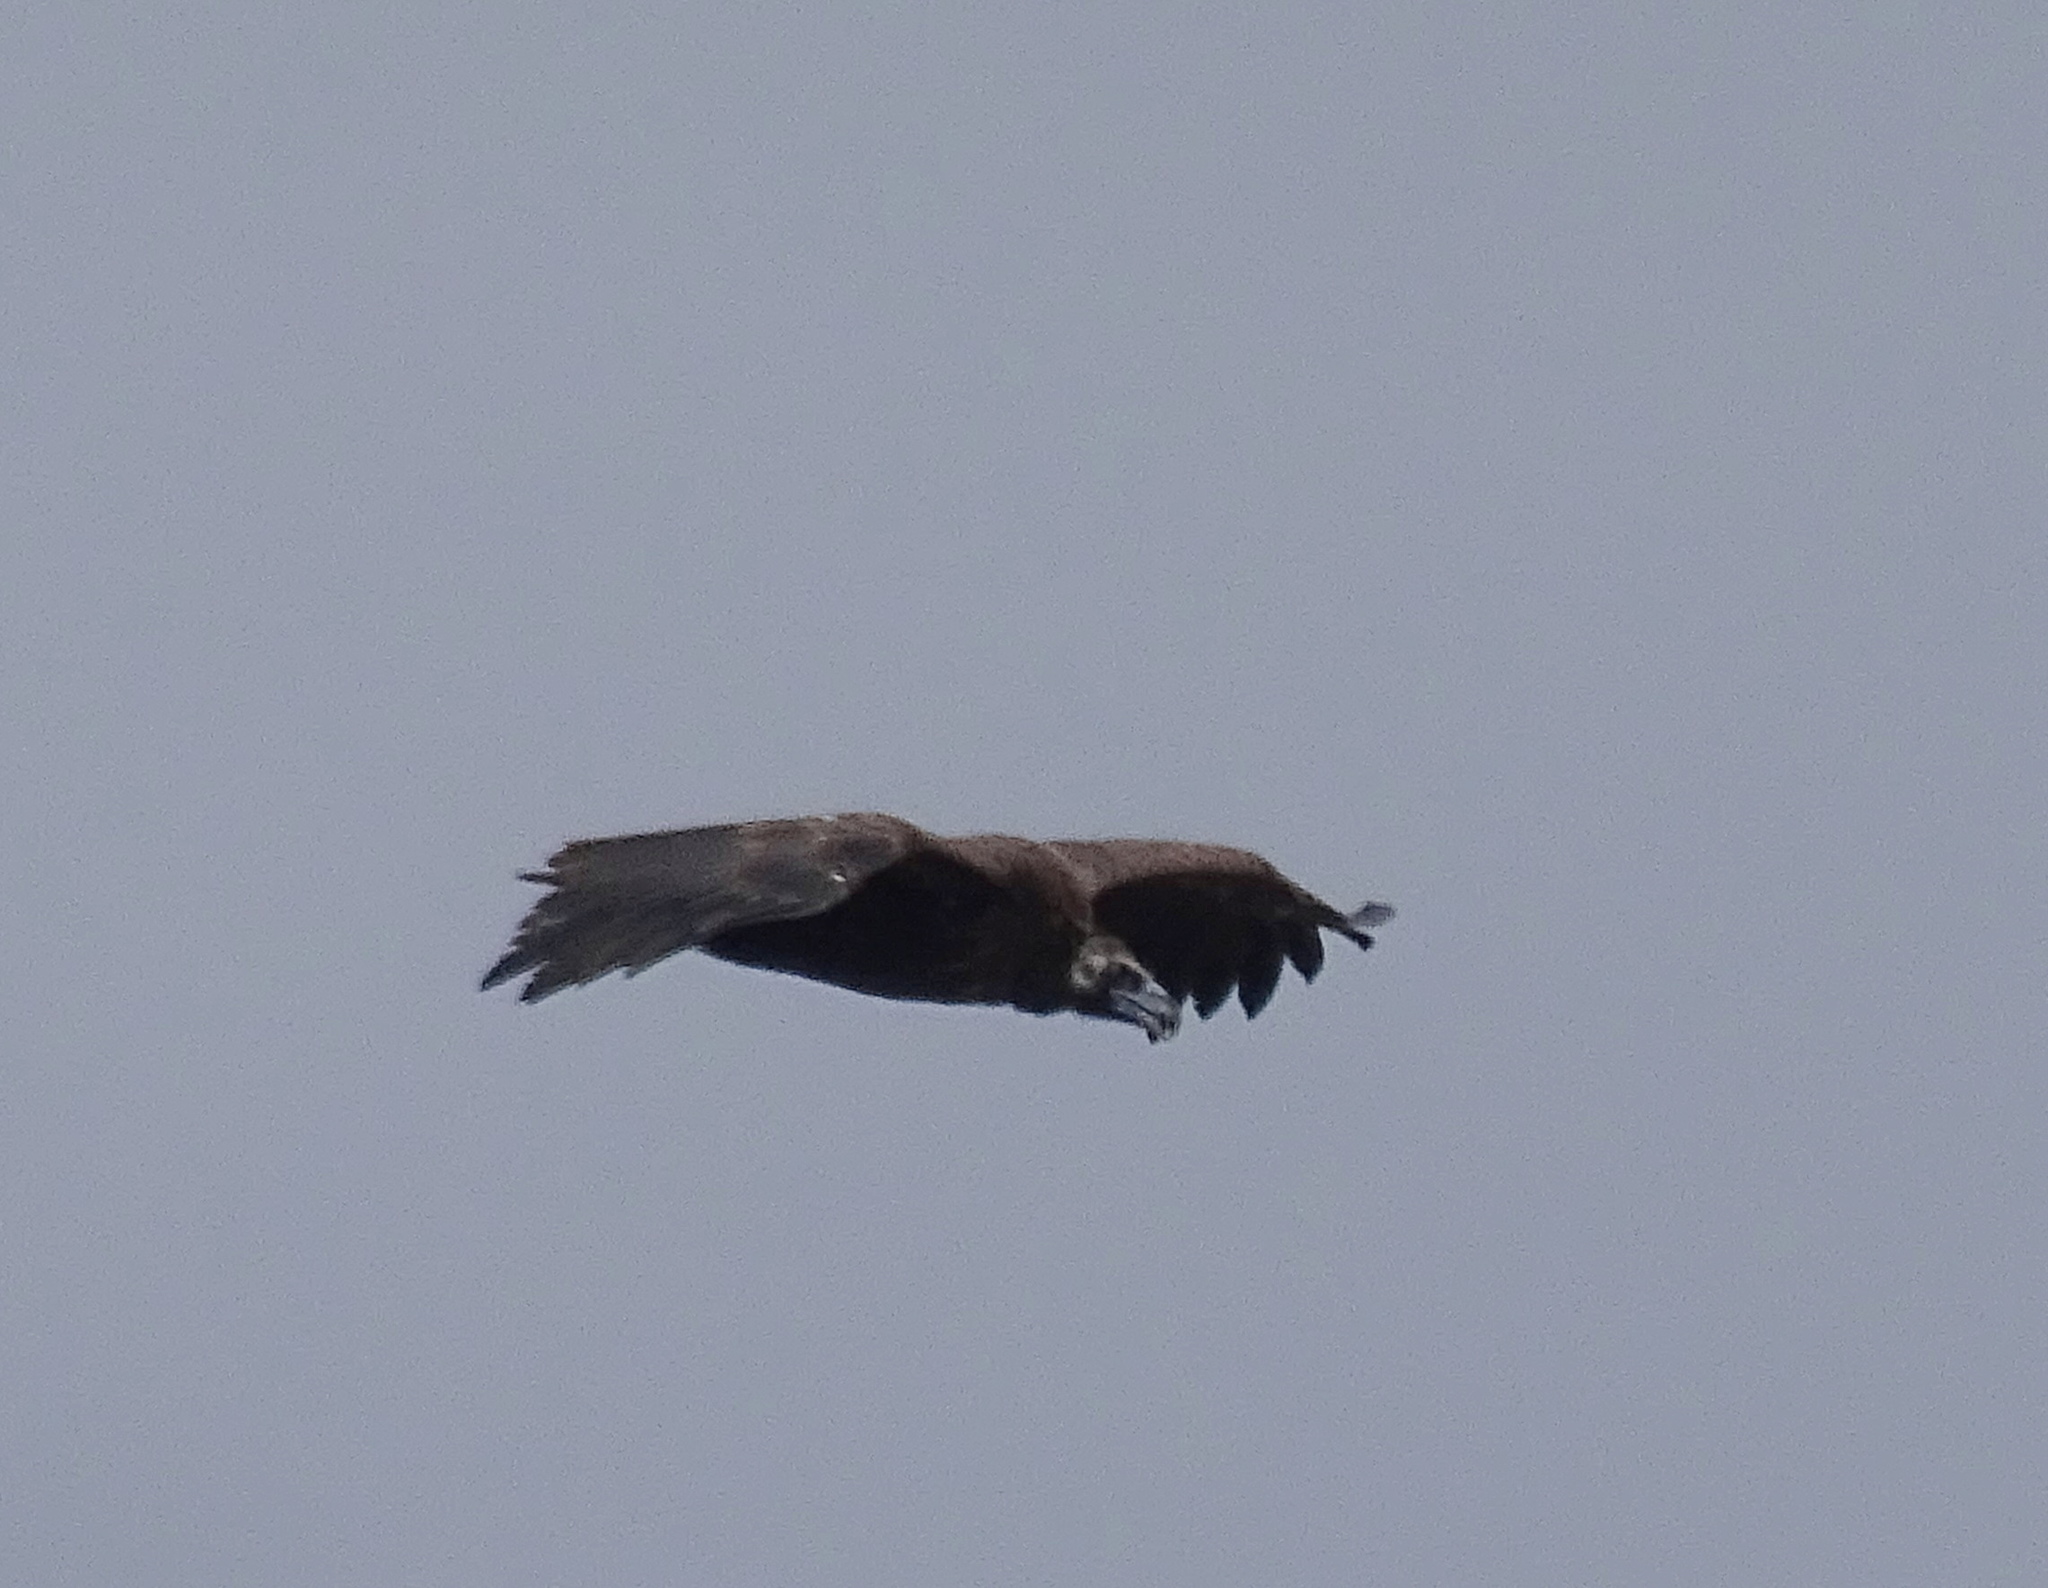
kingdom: Animalia
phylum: Chordata
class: Aves
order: Accipitriformes
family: Accipitridae
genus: Aegypius
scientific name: Aegypius monachus
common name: Cinereous vulture
